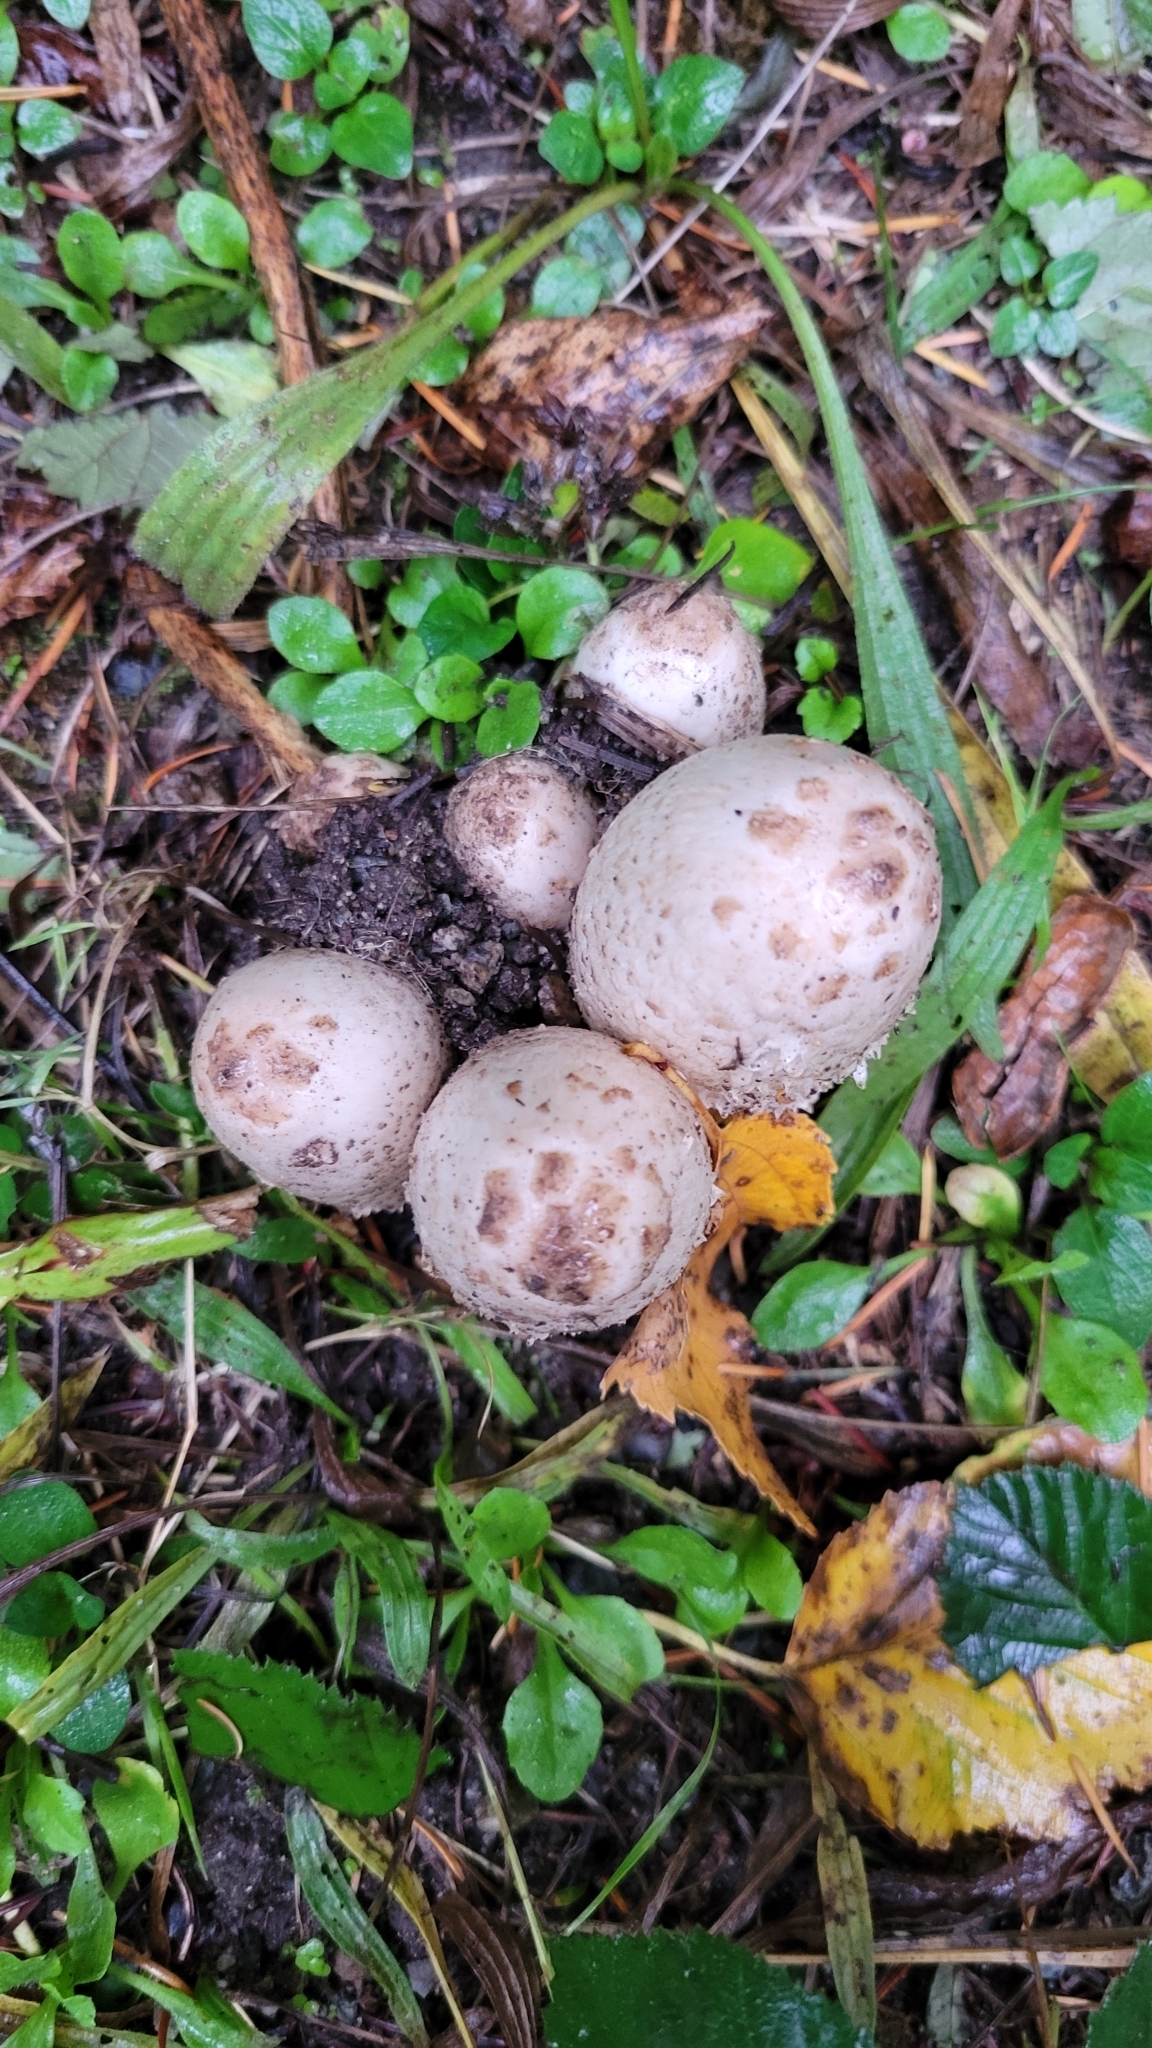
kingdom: Fungi
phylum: Basidiomycota
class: Agaricomycetes
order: Agaricales
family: Agaricaceae
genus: Coprinus
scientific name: Coprinus comatus
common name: Lawyer's wig
